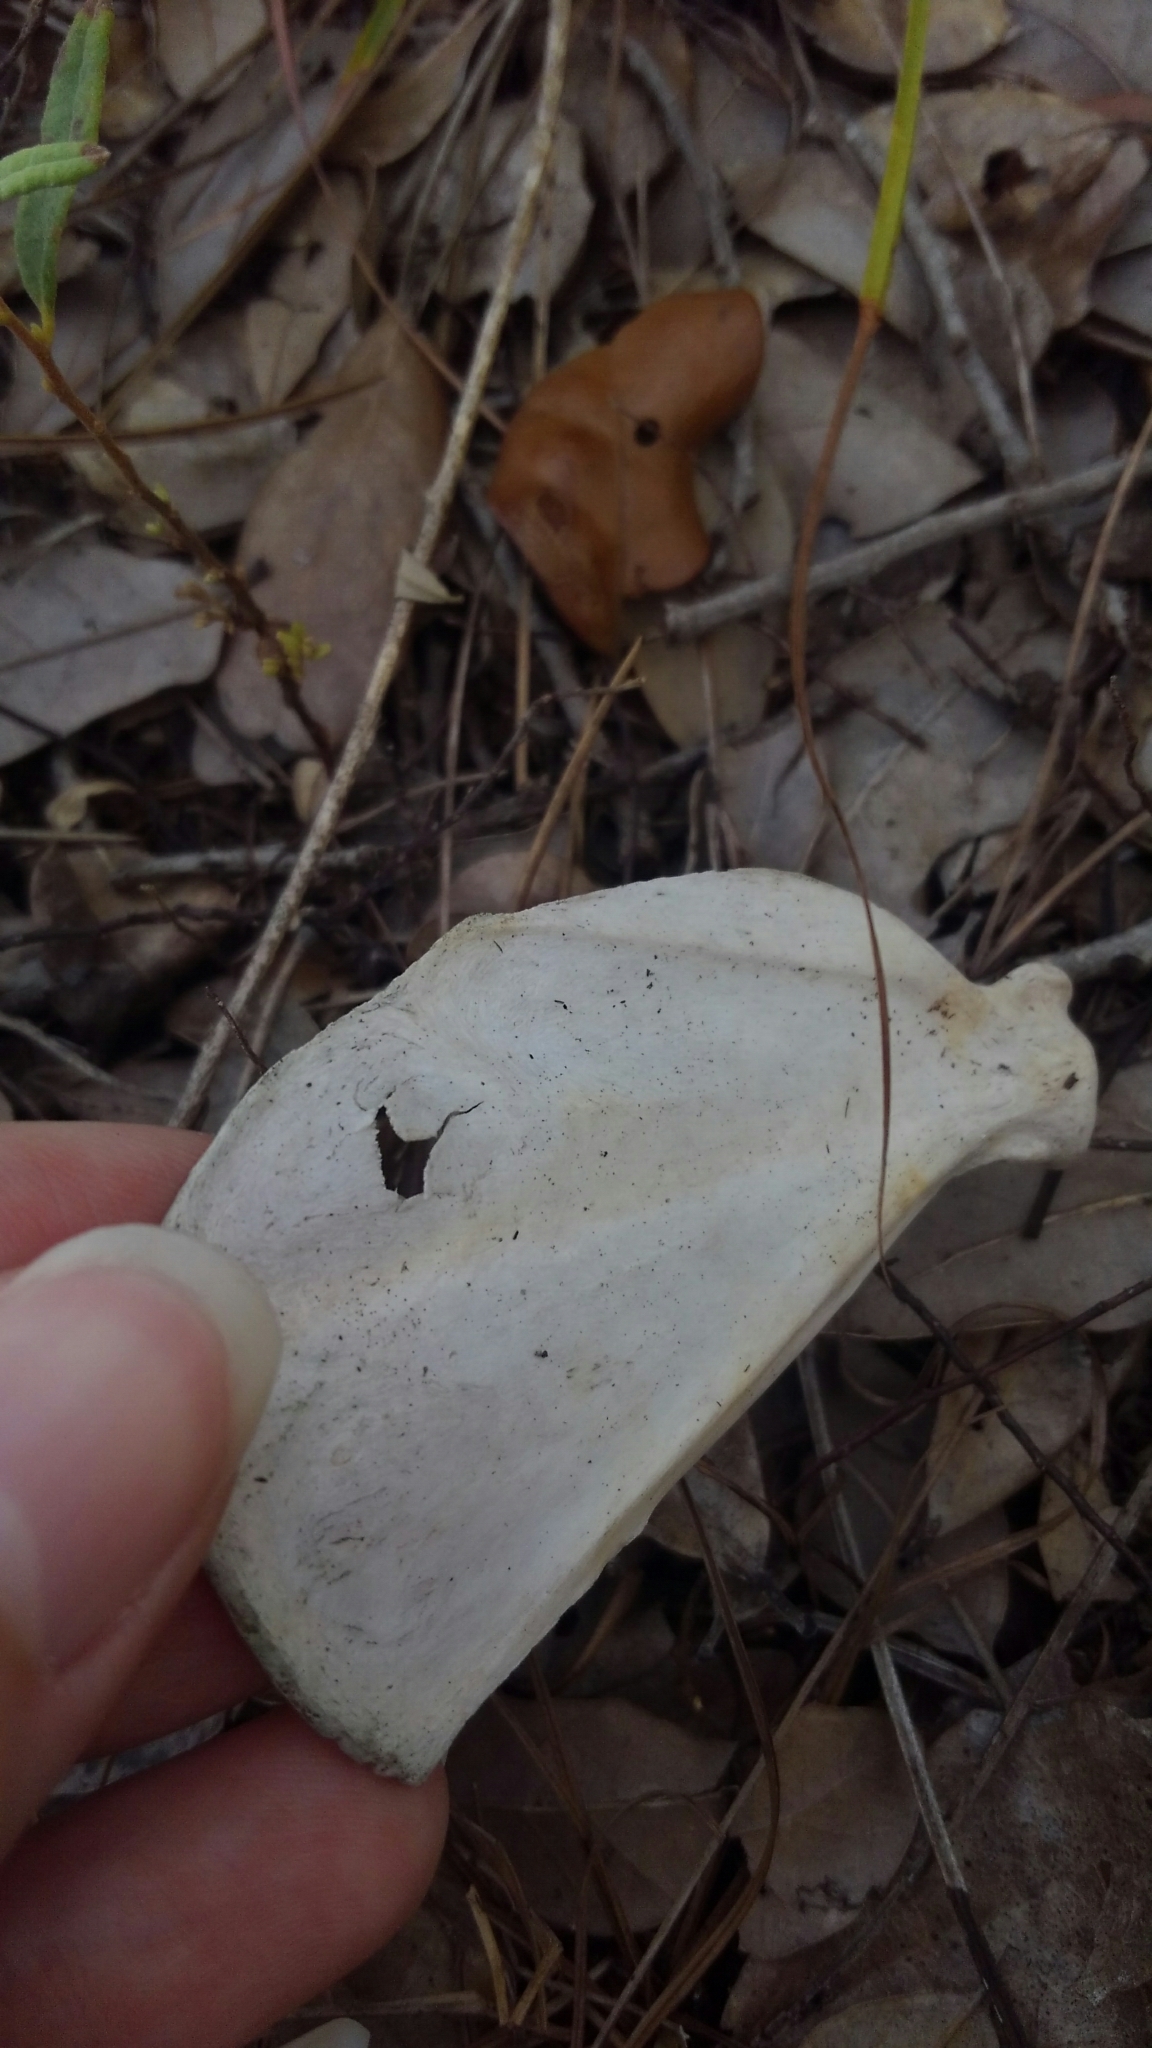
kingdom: Animalia
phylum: Chordata
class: Mammalia
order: Carnivora
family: Canidae
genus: Urocyon
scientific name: Urocyon cinereoargenteus
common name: Gray fox
